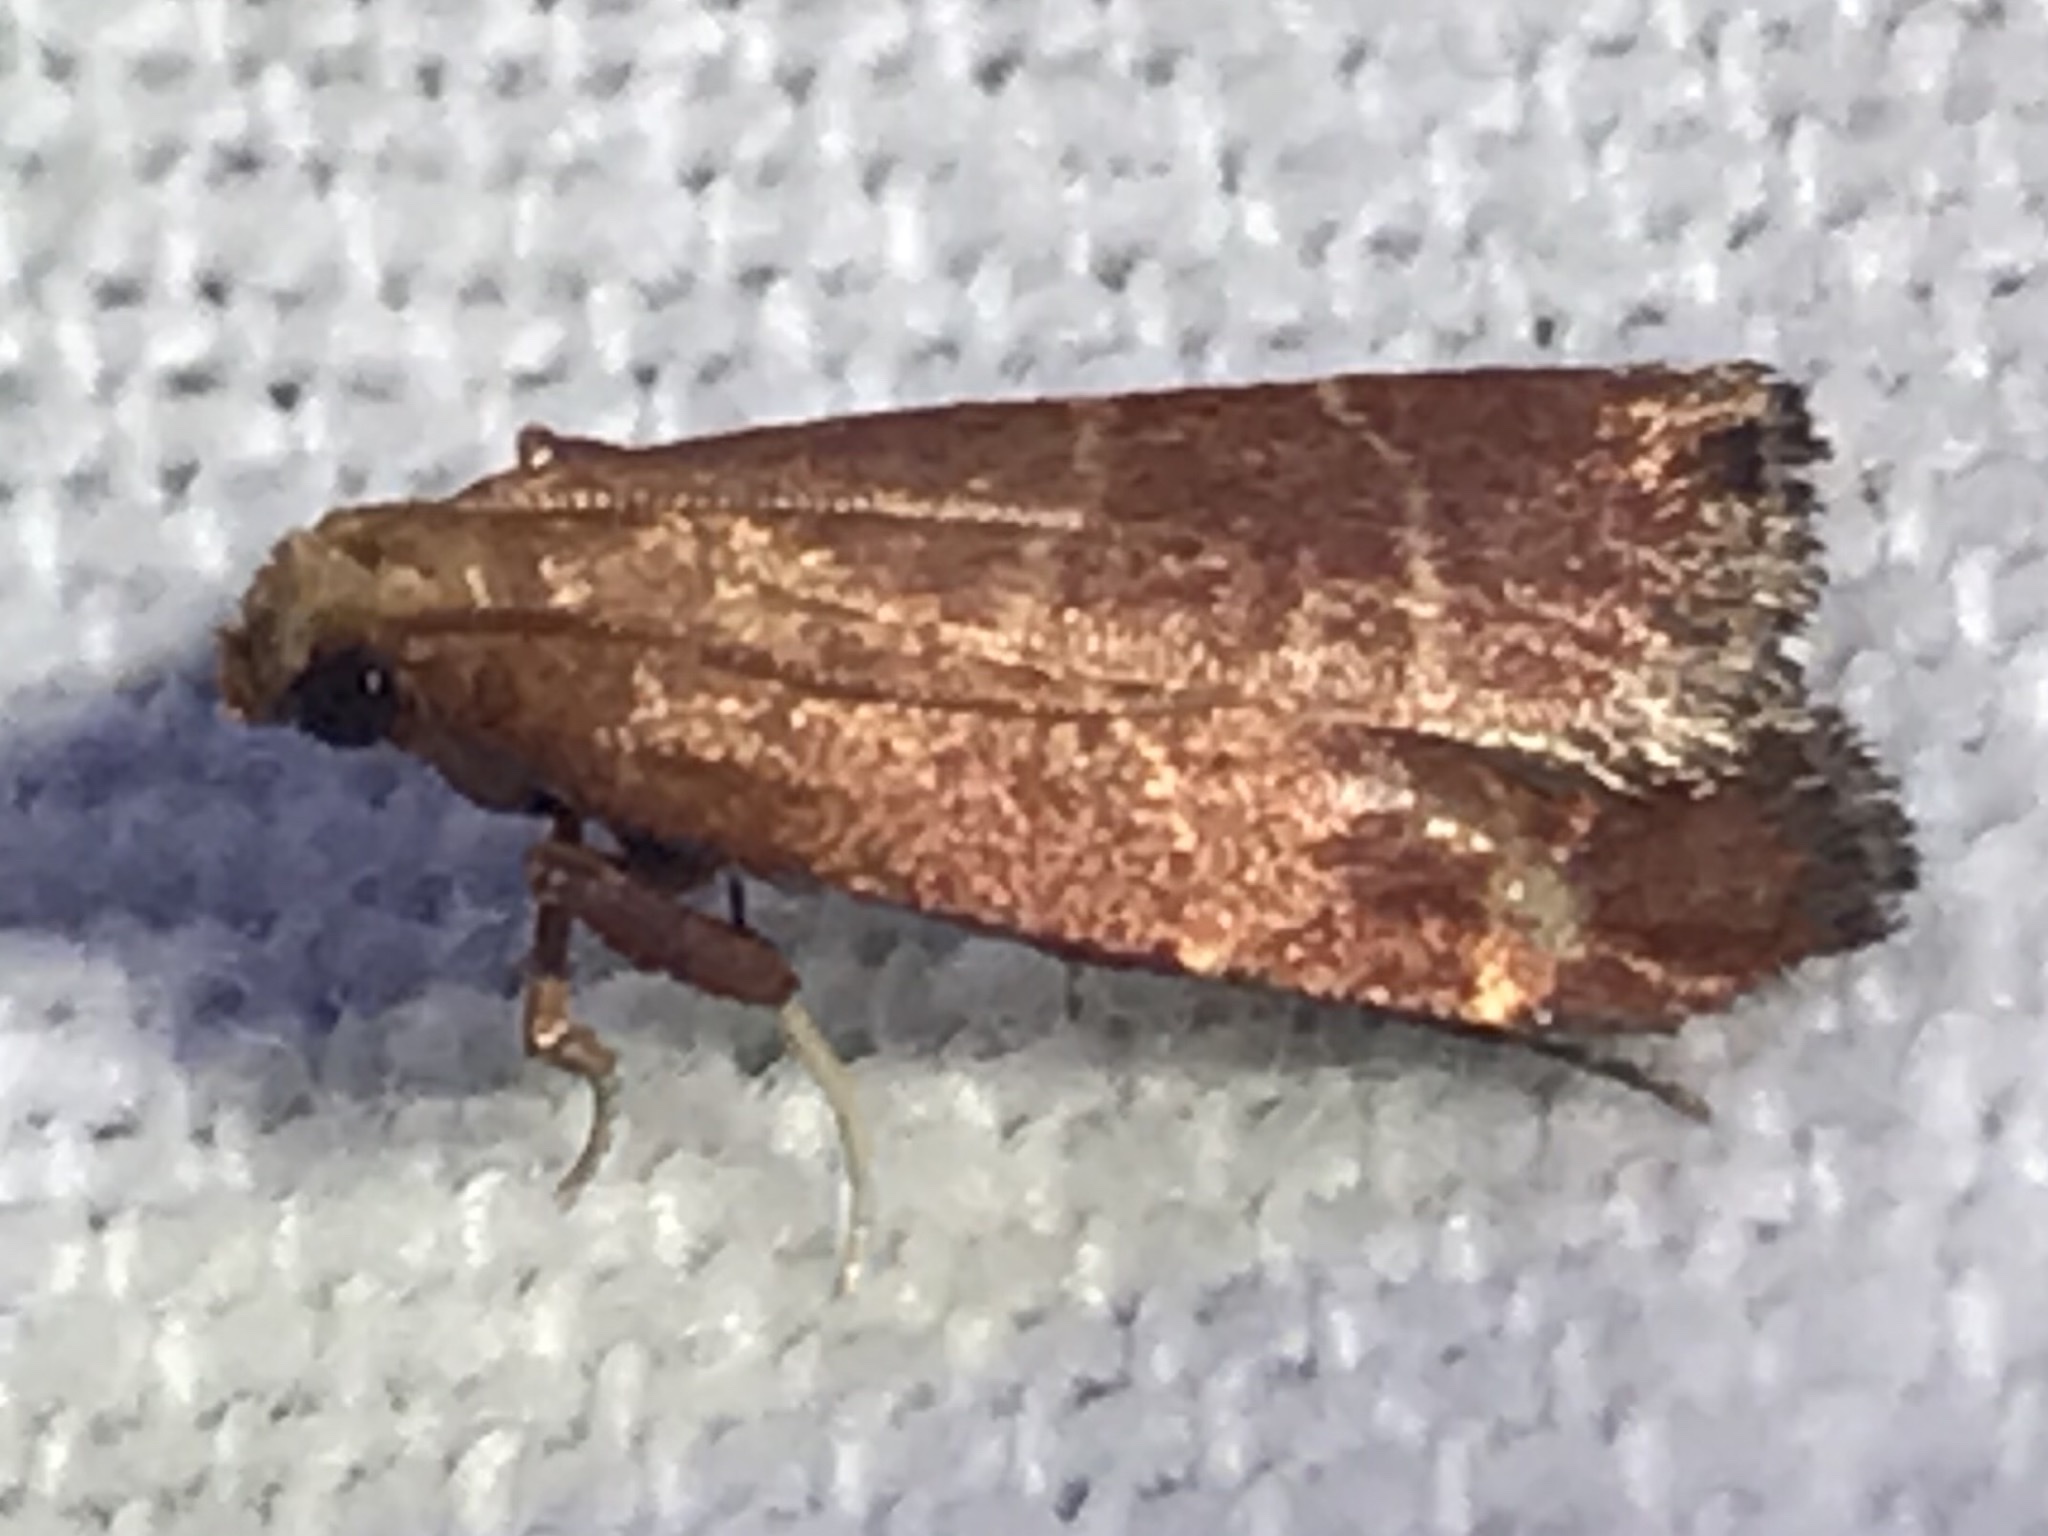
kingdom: Animalia
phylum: Arthropoda
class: Insecta
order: Lepidoptera
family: Pyralidae
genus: Arta
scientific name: Arta statalis
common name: Posturing arta moth
